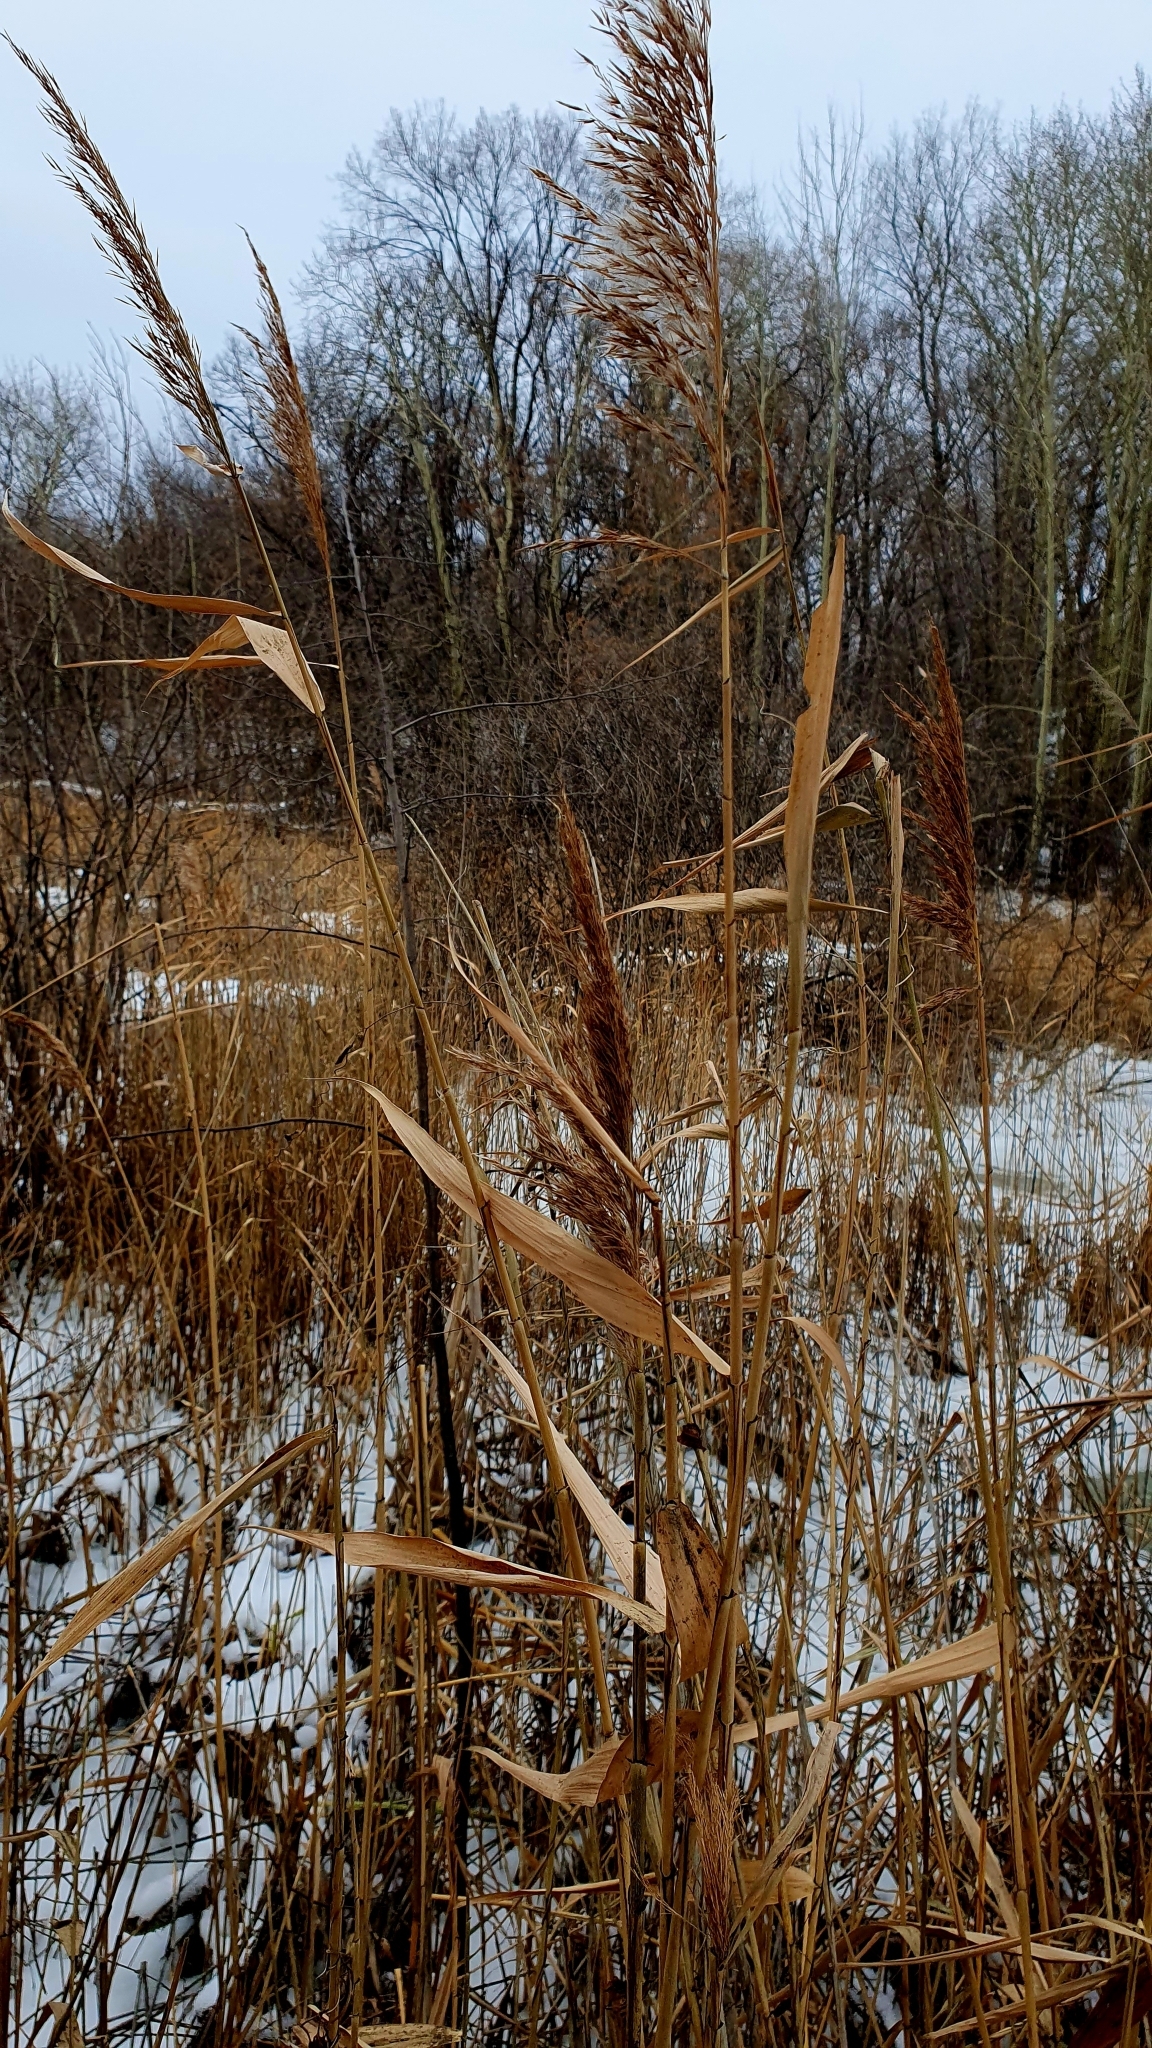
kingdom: Plantae
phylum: Tracheophyta
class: Liliopsida
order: Poales
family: Poaceae
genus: Phragmites
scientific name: Phragmites australis
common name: Common reed
